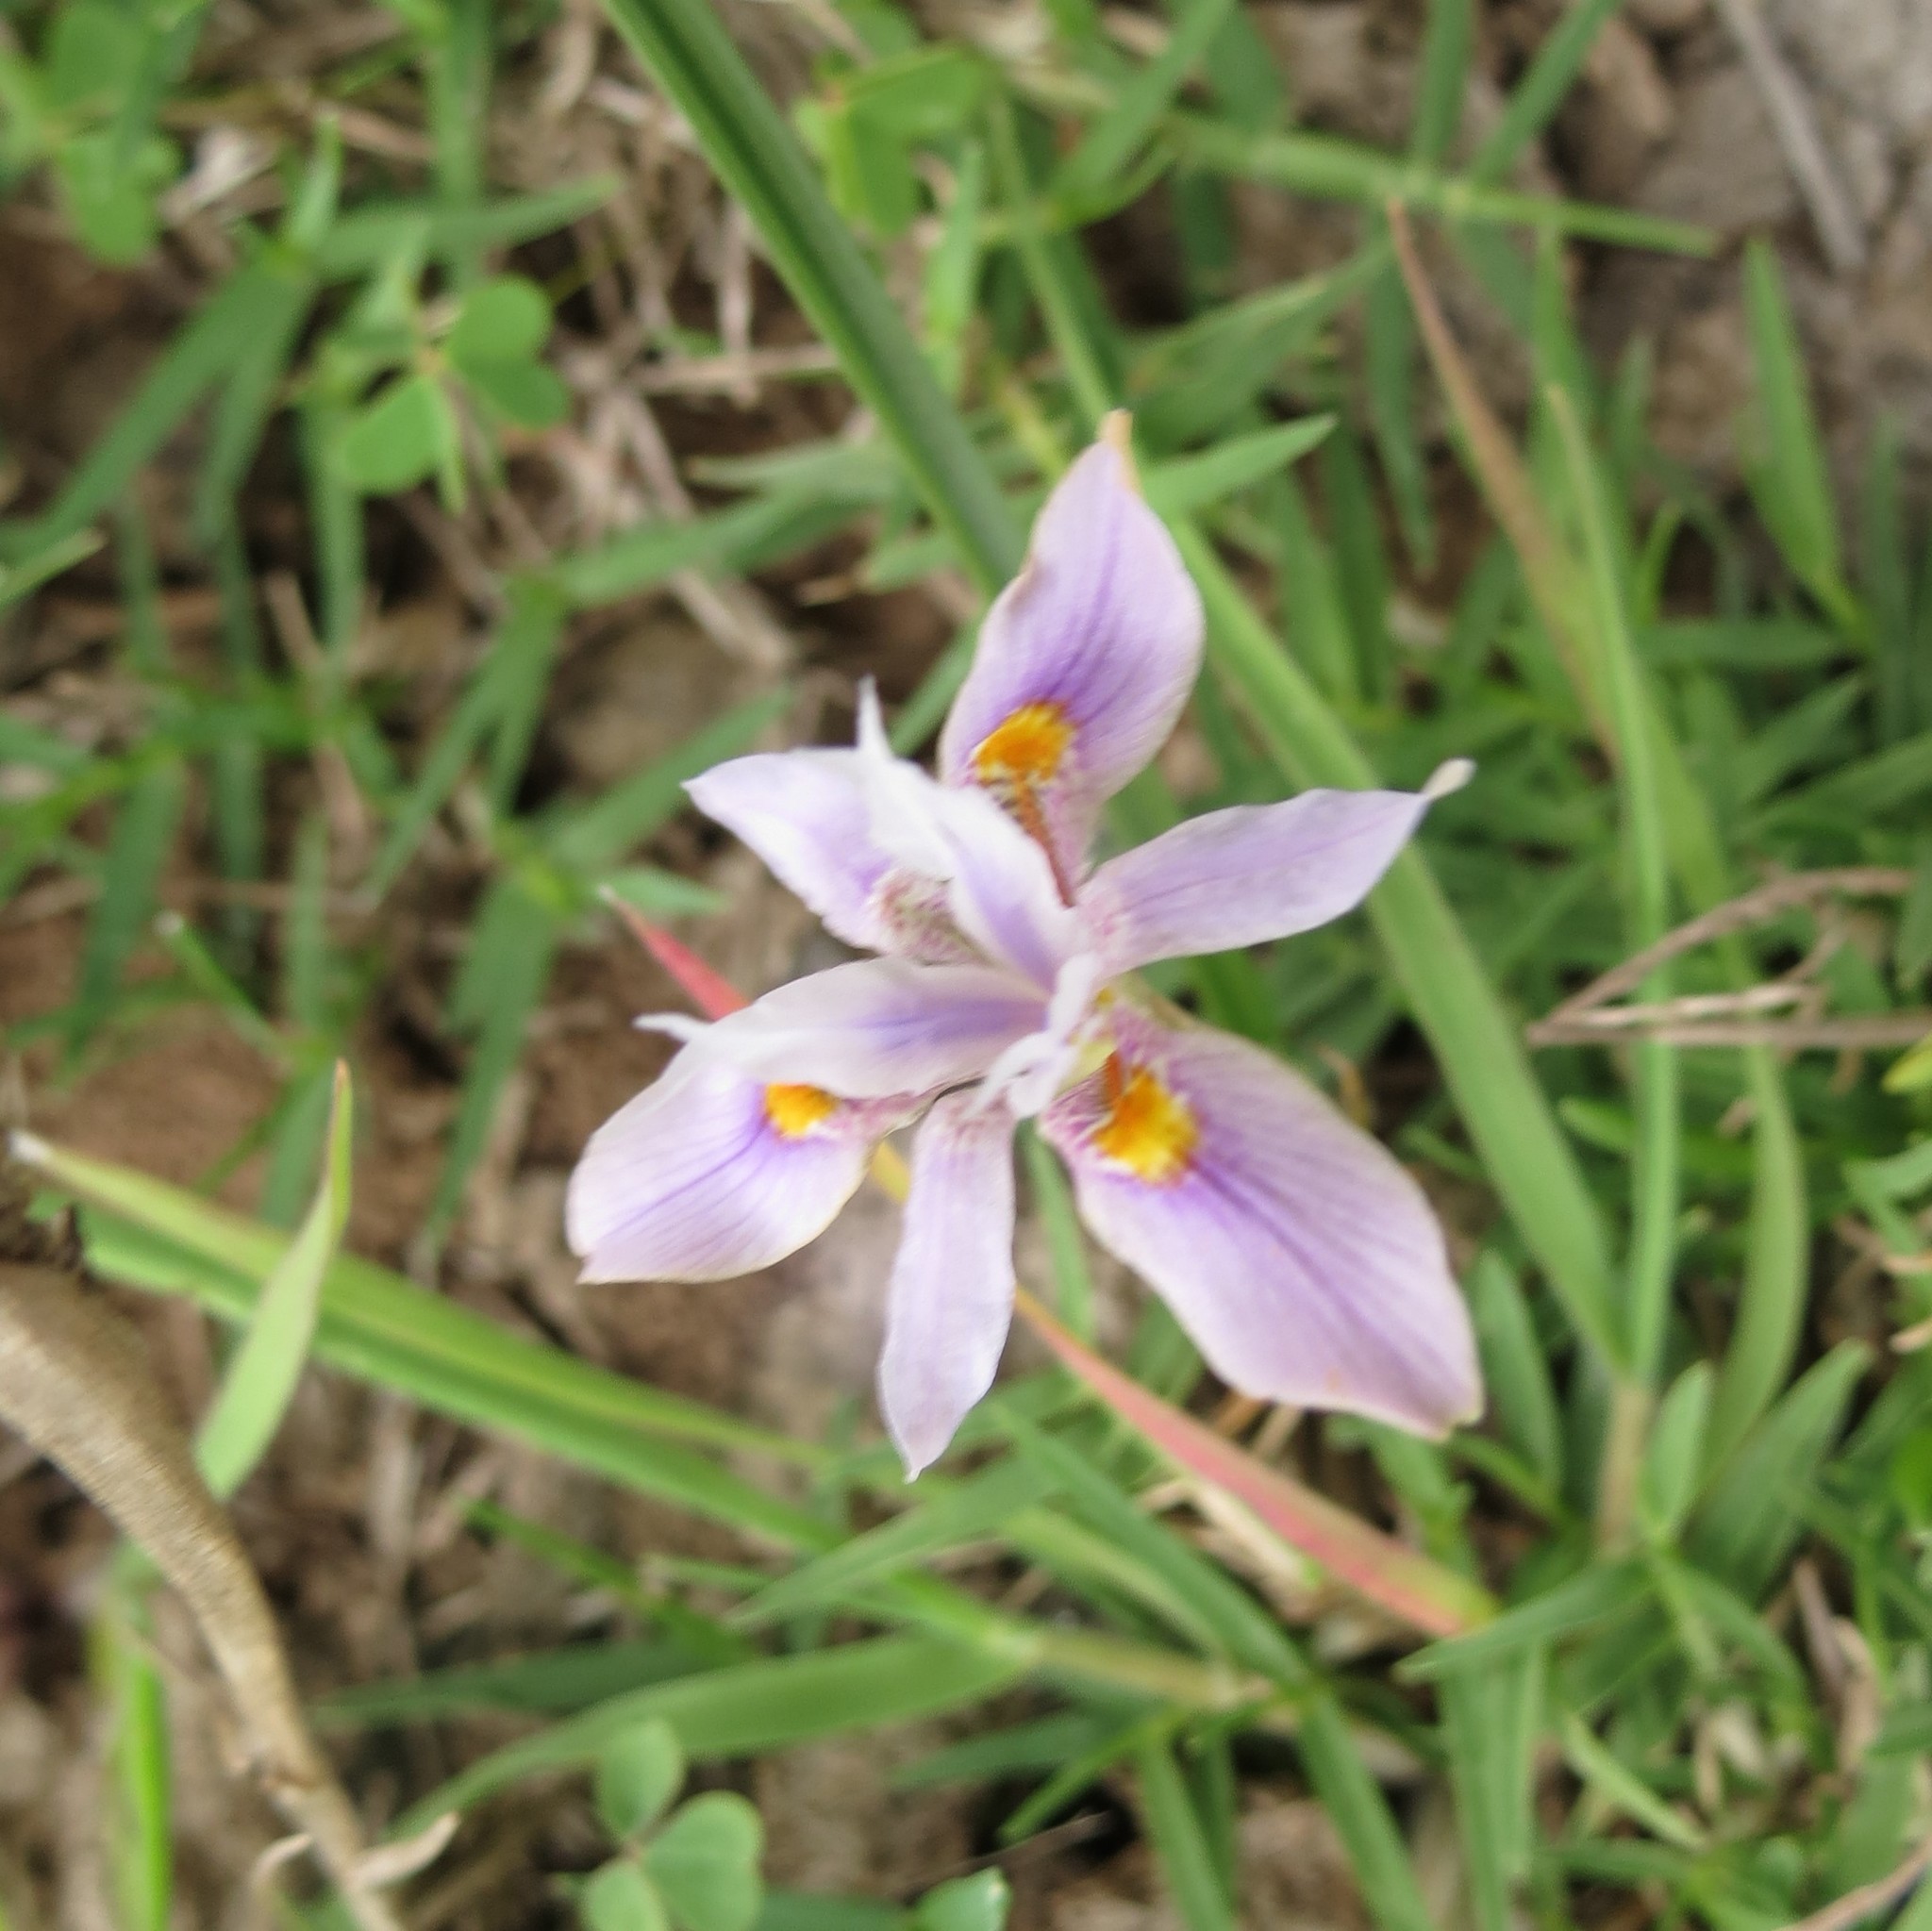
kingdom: Plantae
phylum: Tracheophyta
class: Liliopsida
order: Asparagales
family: Iridaceae
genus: Moraea
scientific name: Moraea setifolia
